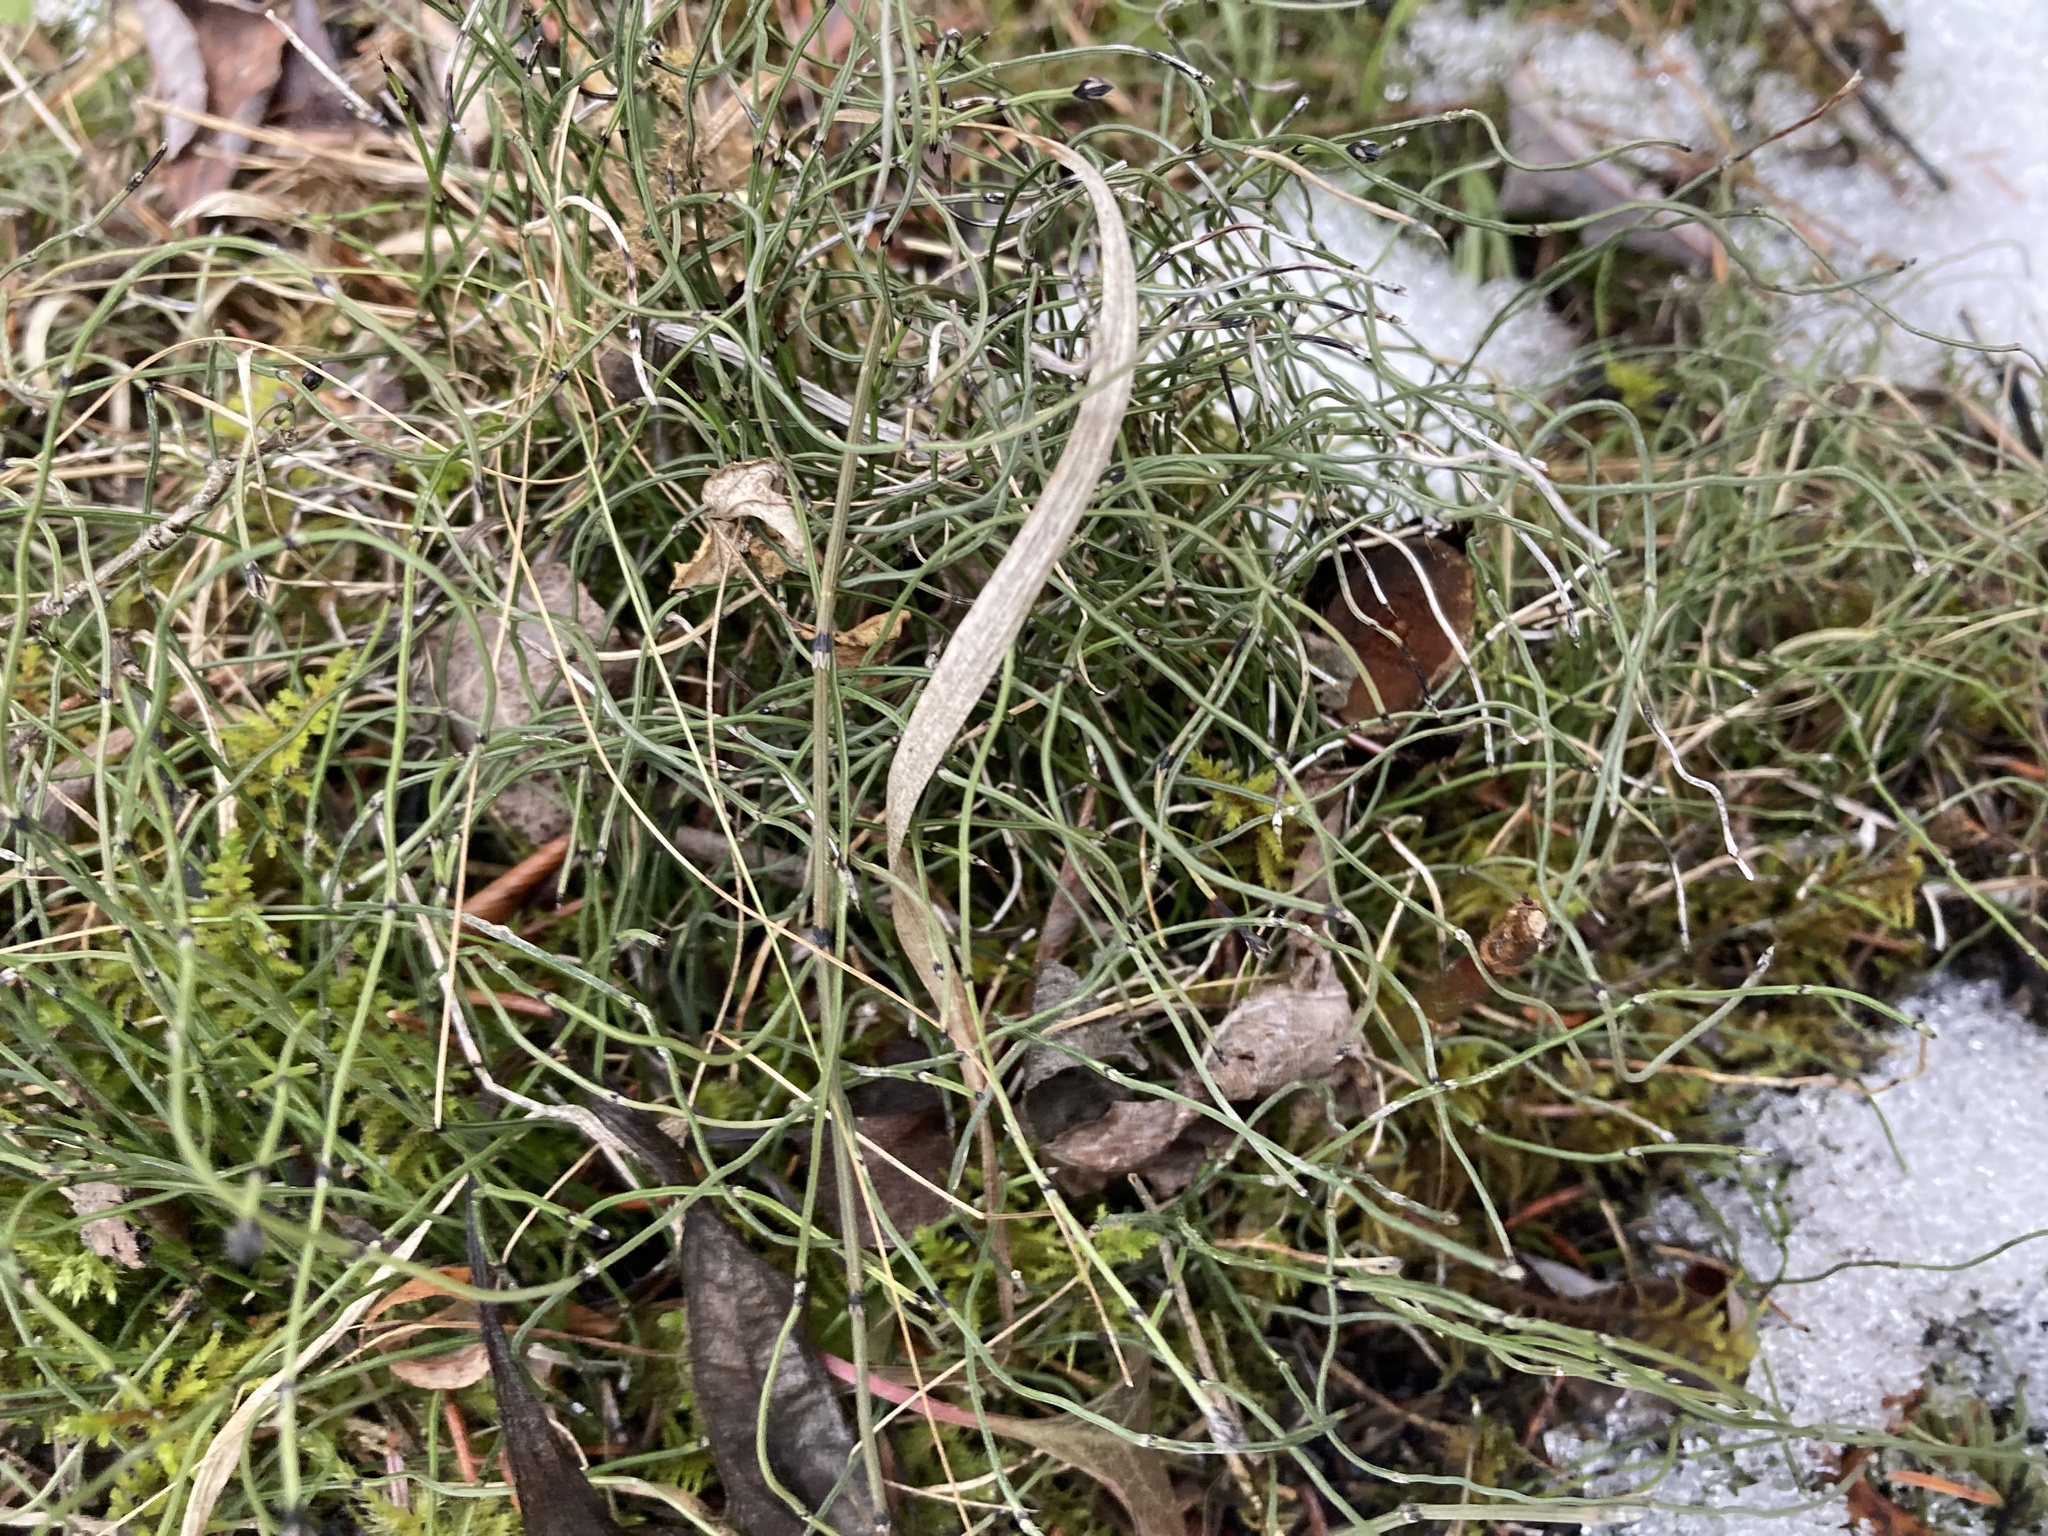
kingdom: Plantae
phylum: Tracheophyta
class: Polypodiopsida
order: Equisetales
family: Equisetaceae
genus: Equisetum
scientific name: Equisetum scirpoides
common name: Delicate horsetail
